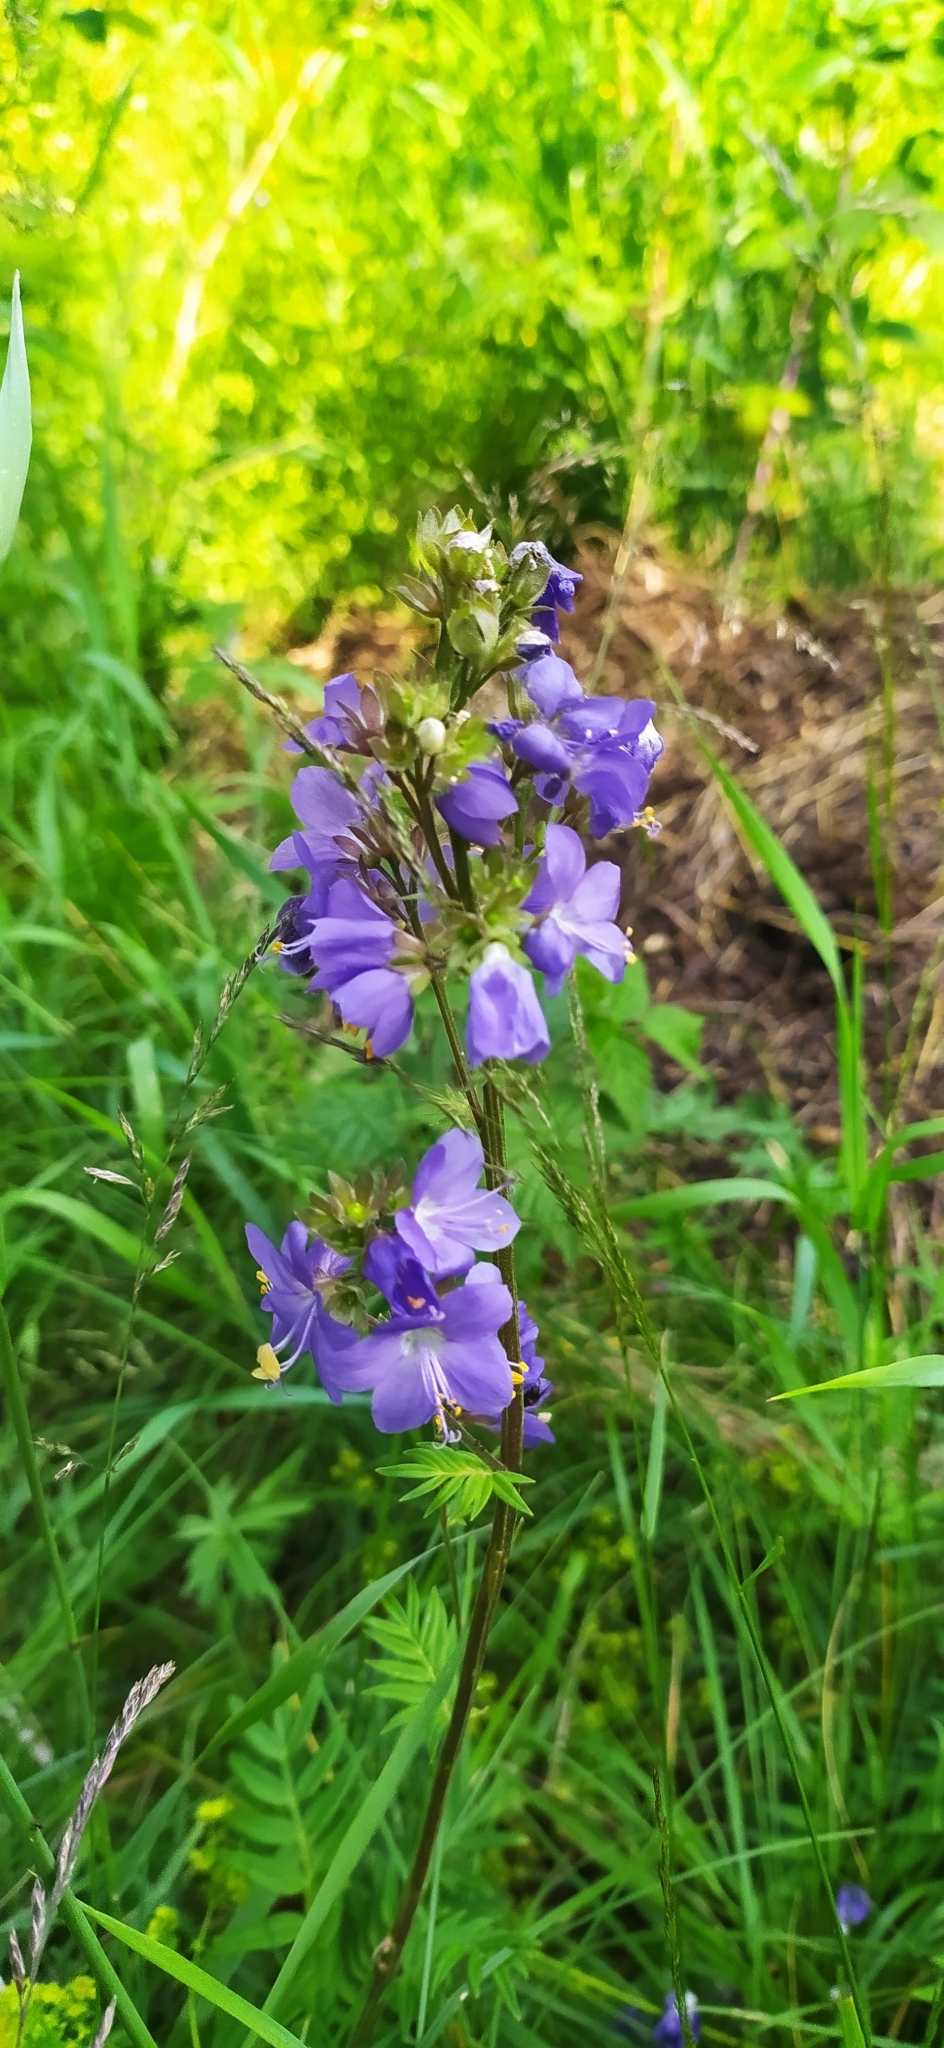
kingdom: Plantae
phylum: Tracheophyta
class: Magnoliopsida
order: Ericales
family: Polemoniaceae
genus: Polemonium
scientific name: Polemonium caeruleum
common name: Jacob's-ladder
